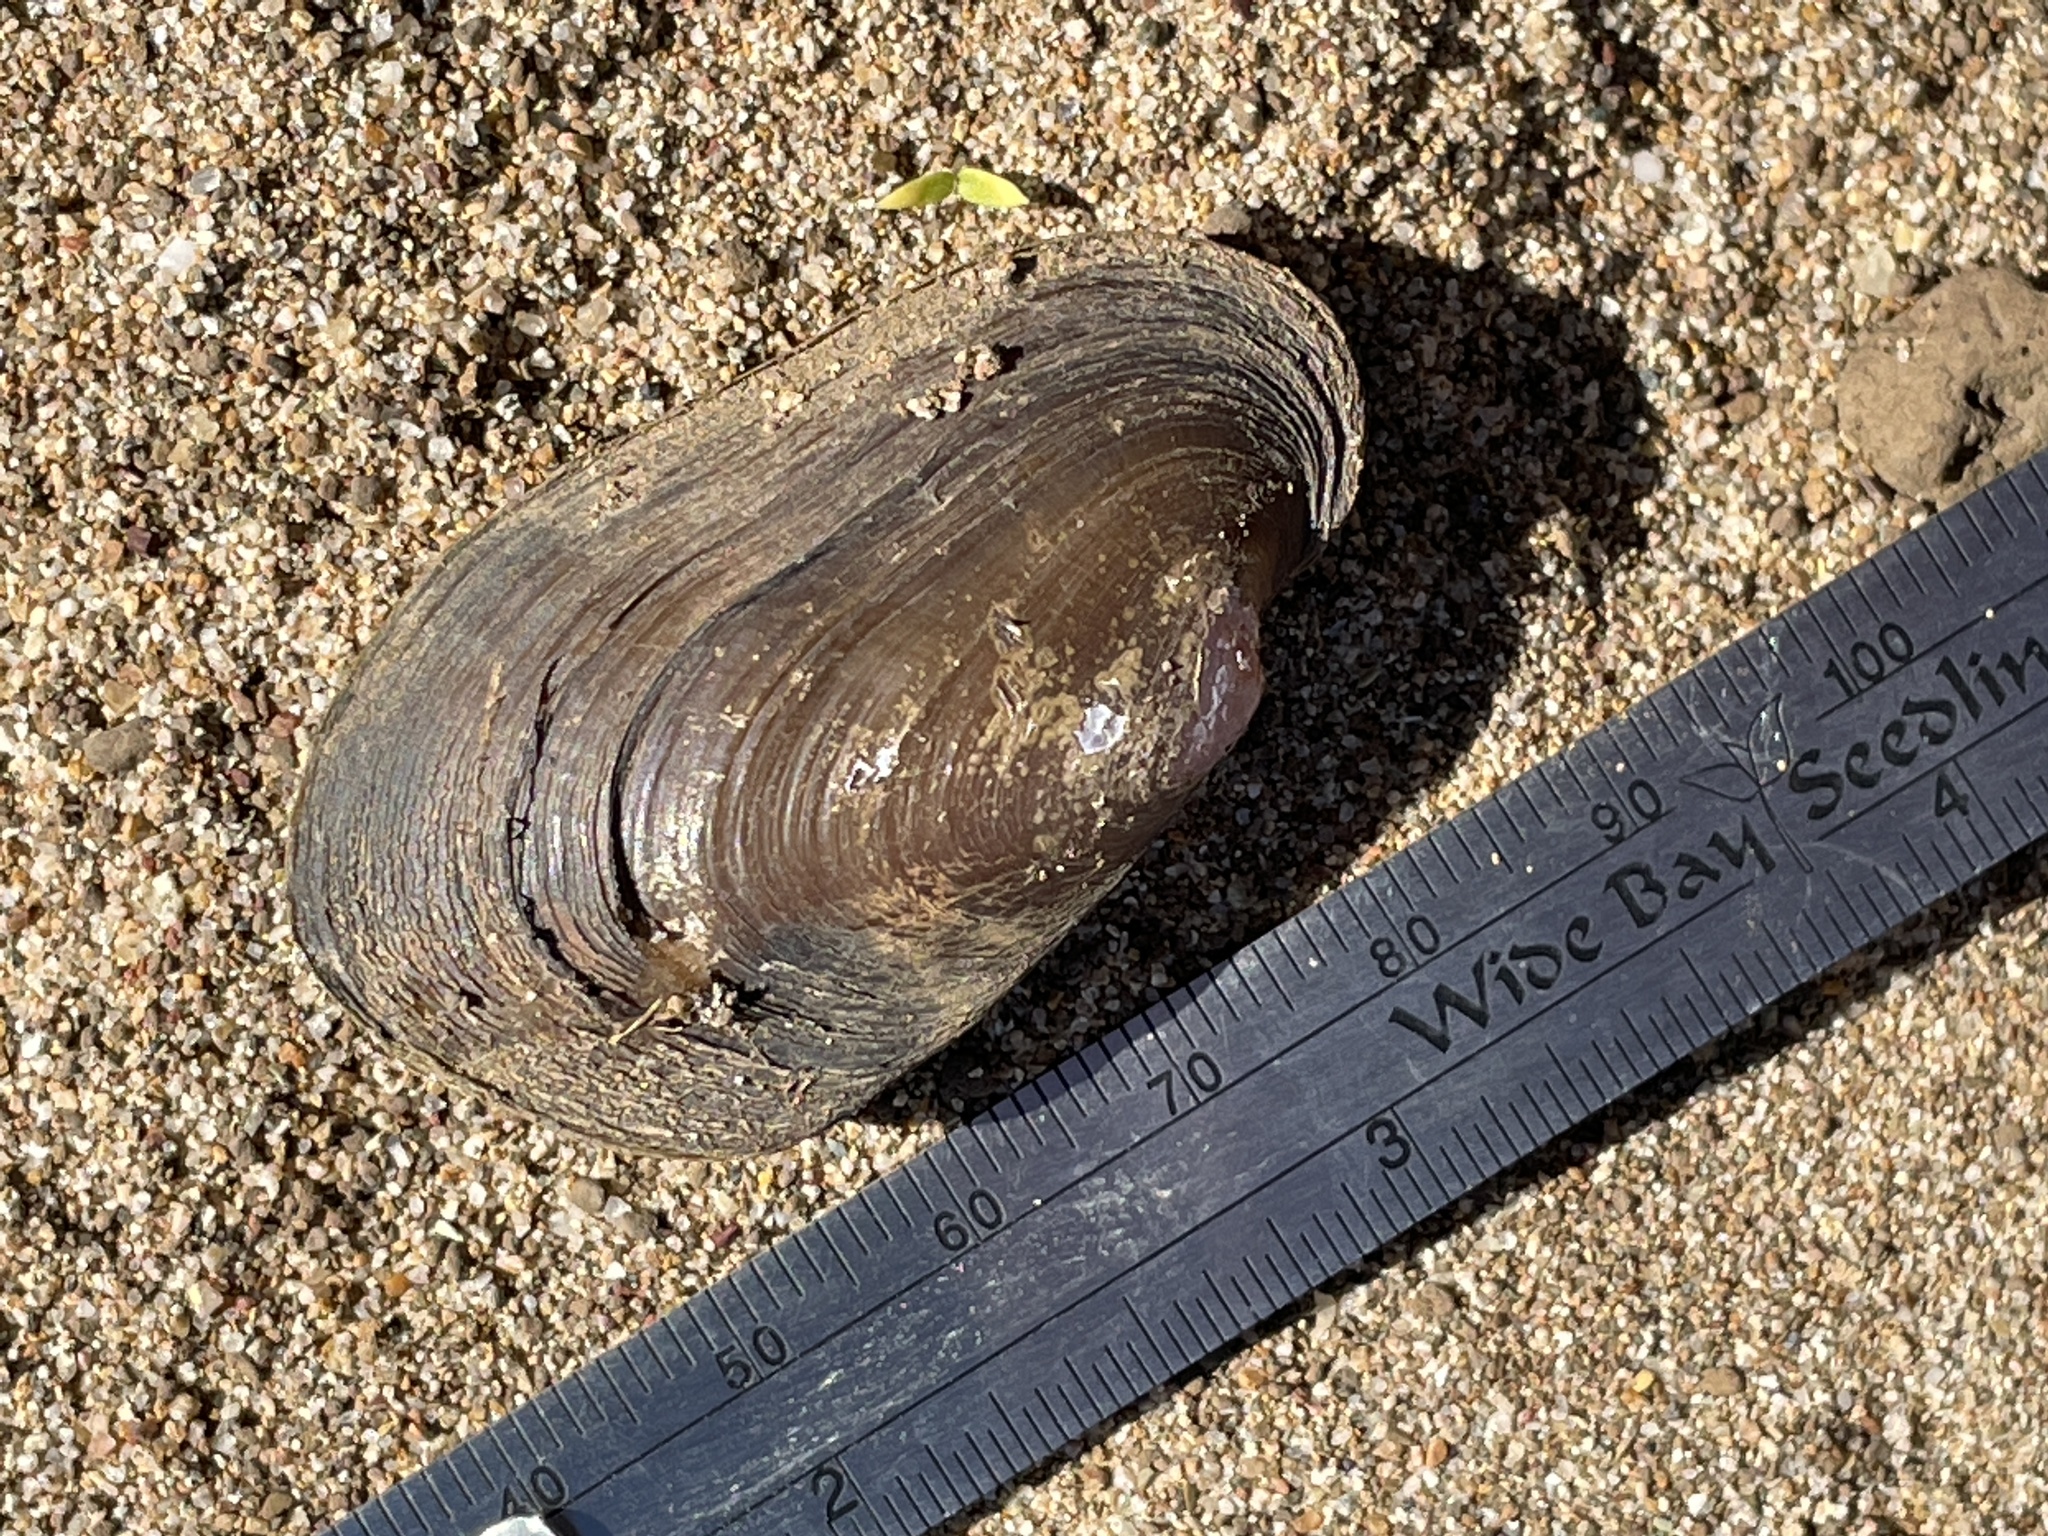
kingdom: Animalia
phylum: Mollusca
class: Bivalvia
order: Unionida
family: Hyriidae
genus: Alathyria
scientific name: Alathyria pertexta
